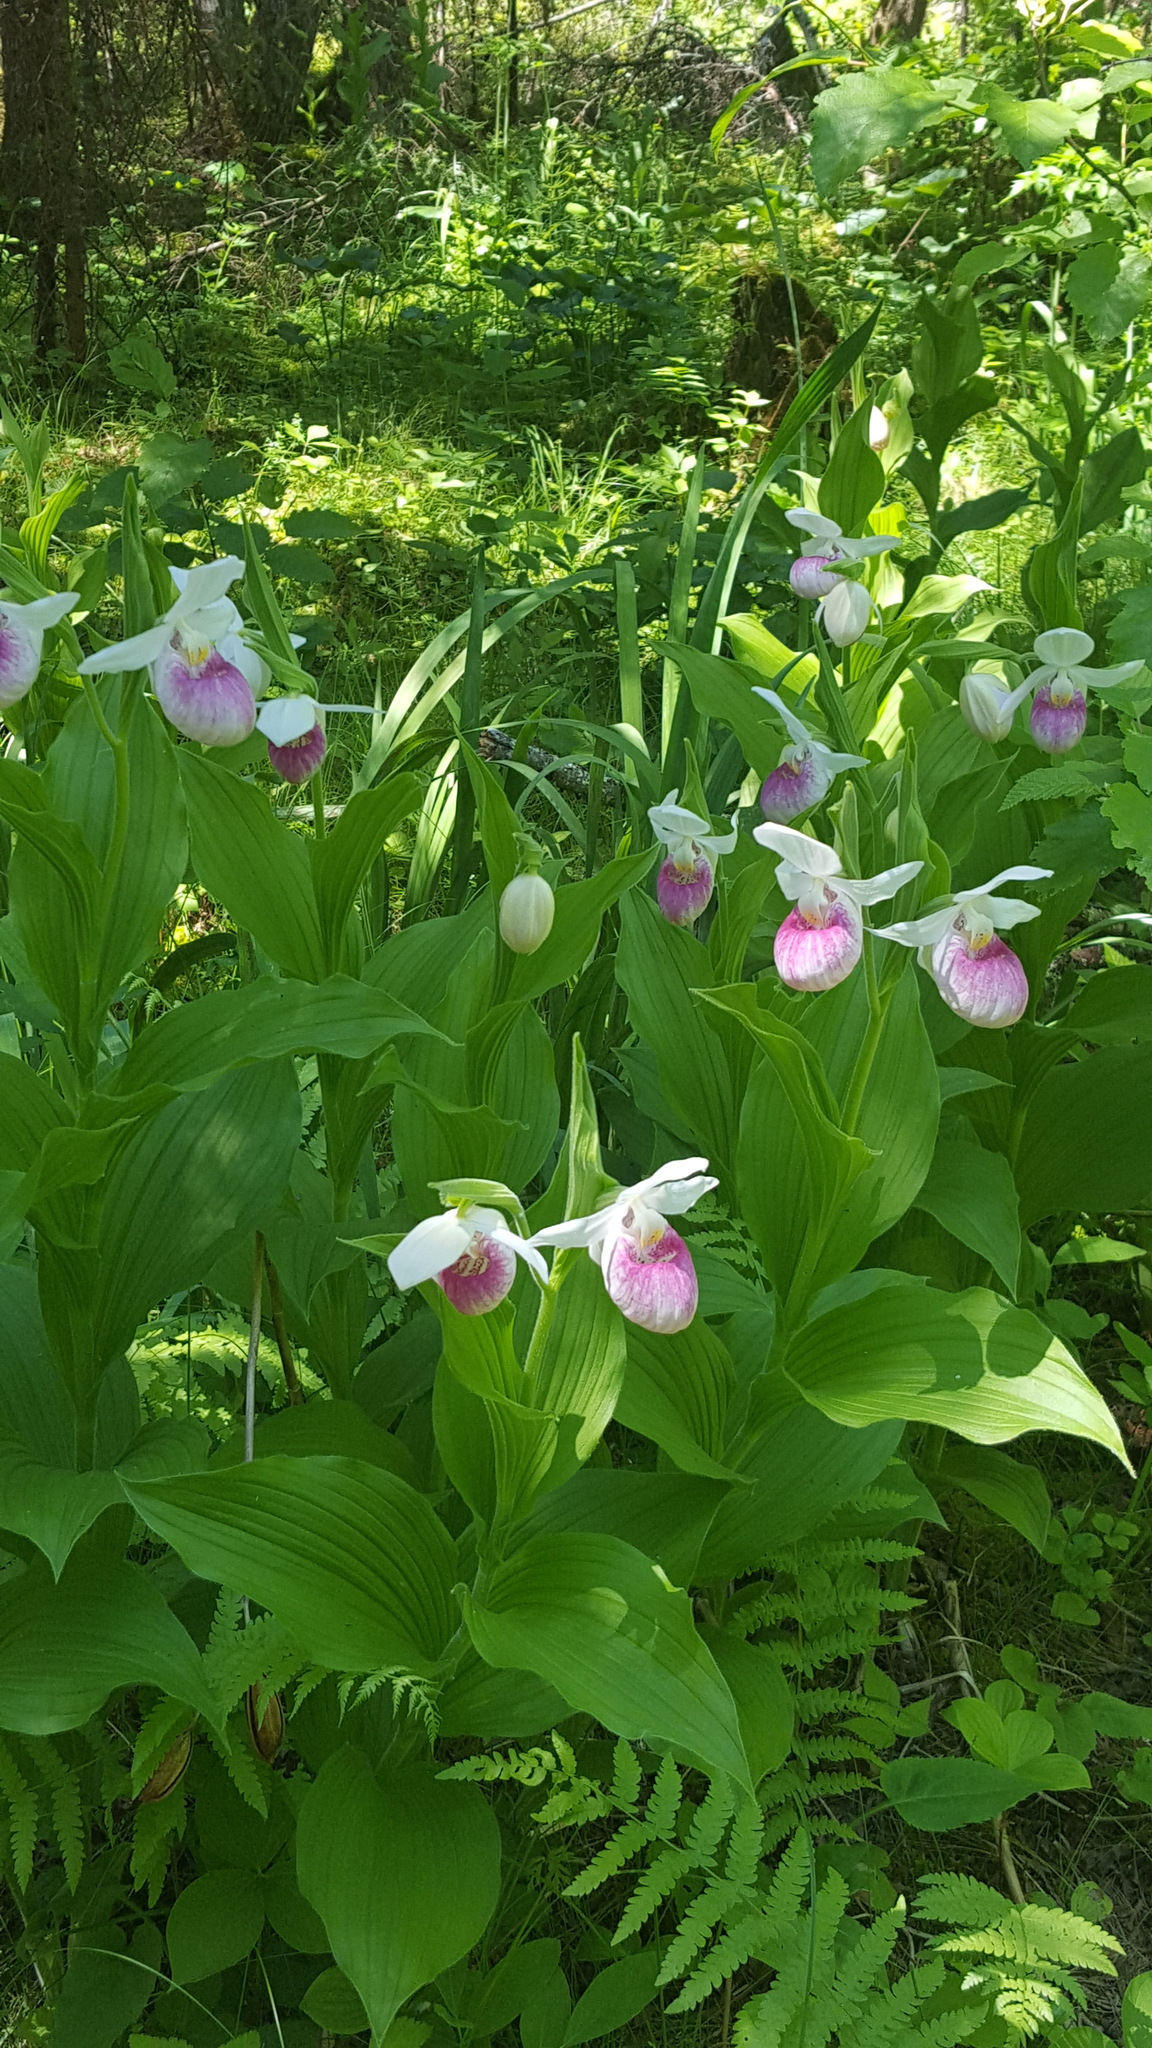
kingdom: Plantae
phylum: Tracheophyta
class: Liliopsida
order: Asparagales
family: Orchidaceae
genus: Cypripedium
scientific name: Cypripedium reginae
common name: Queen lady's-slipper
